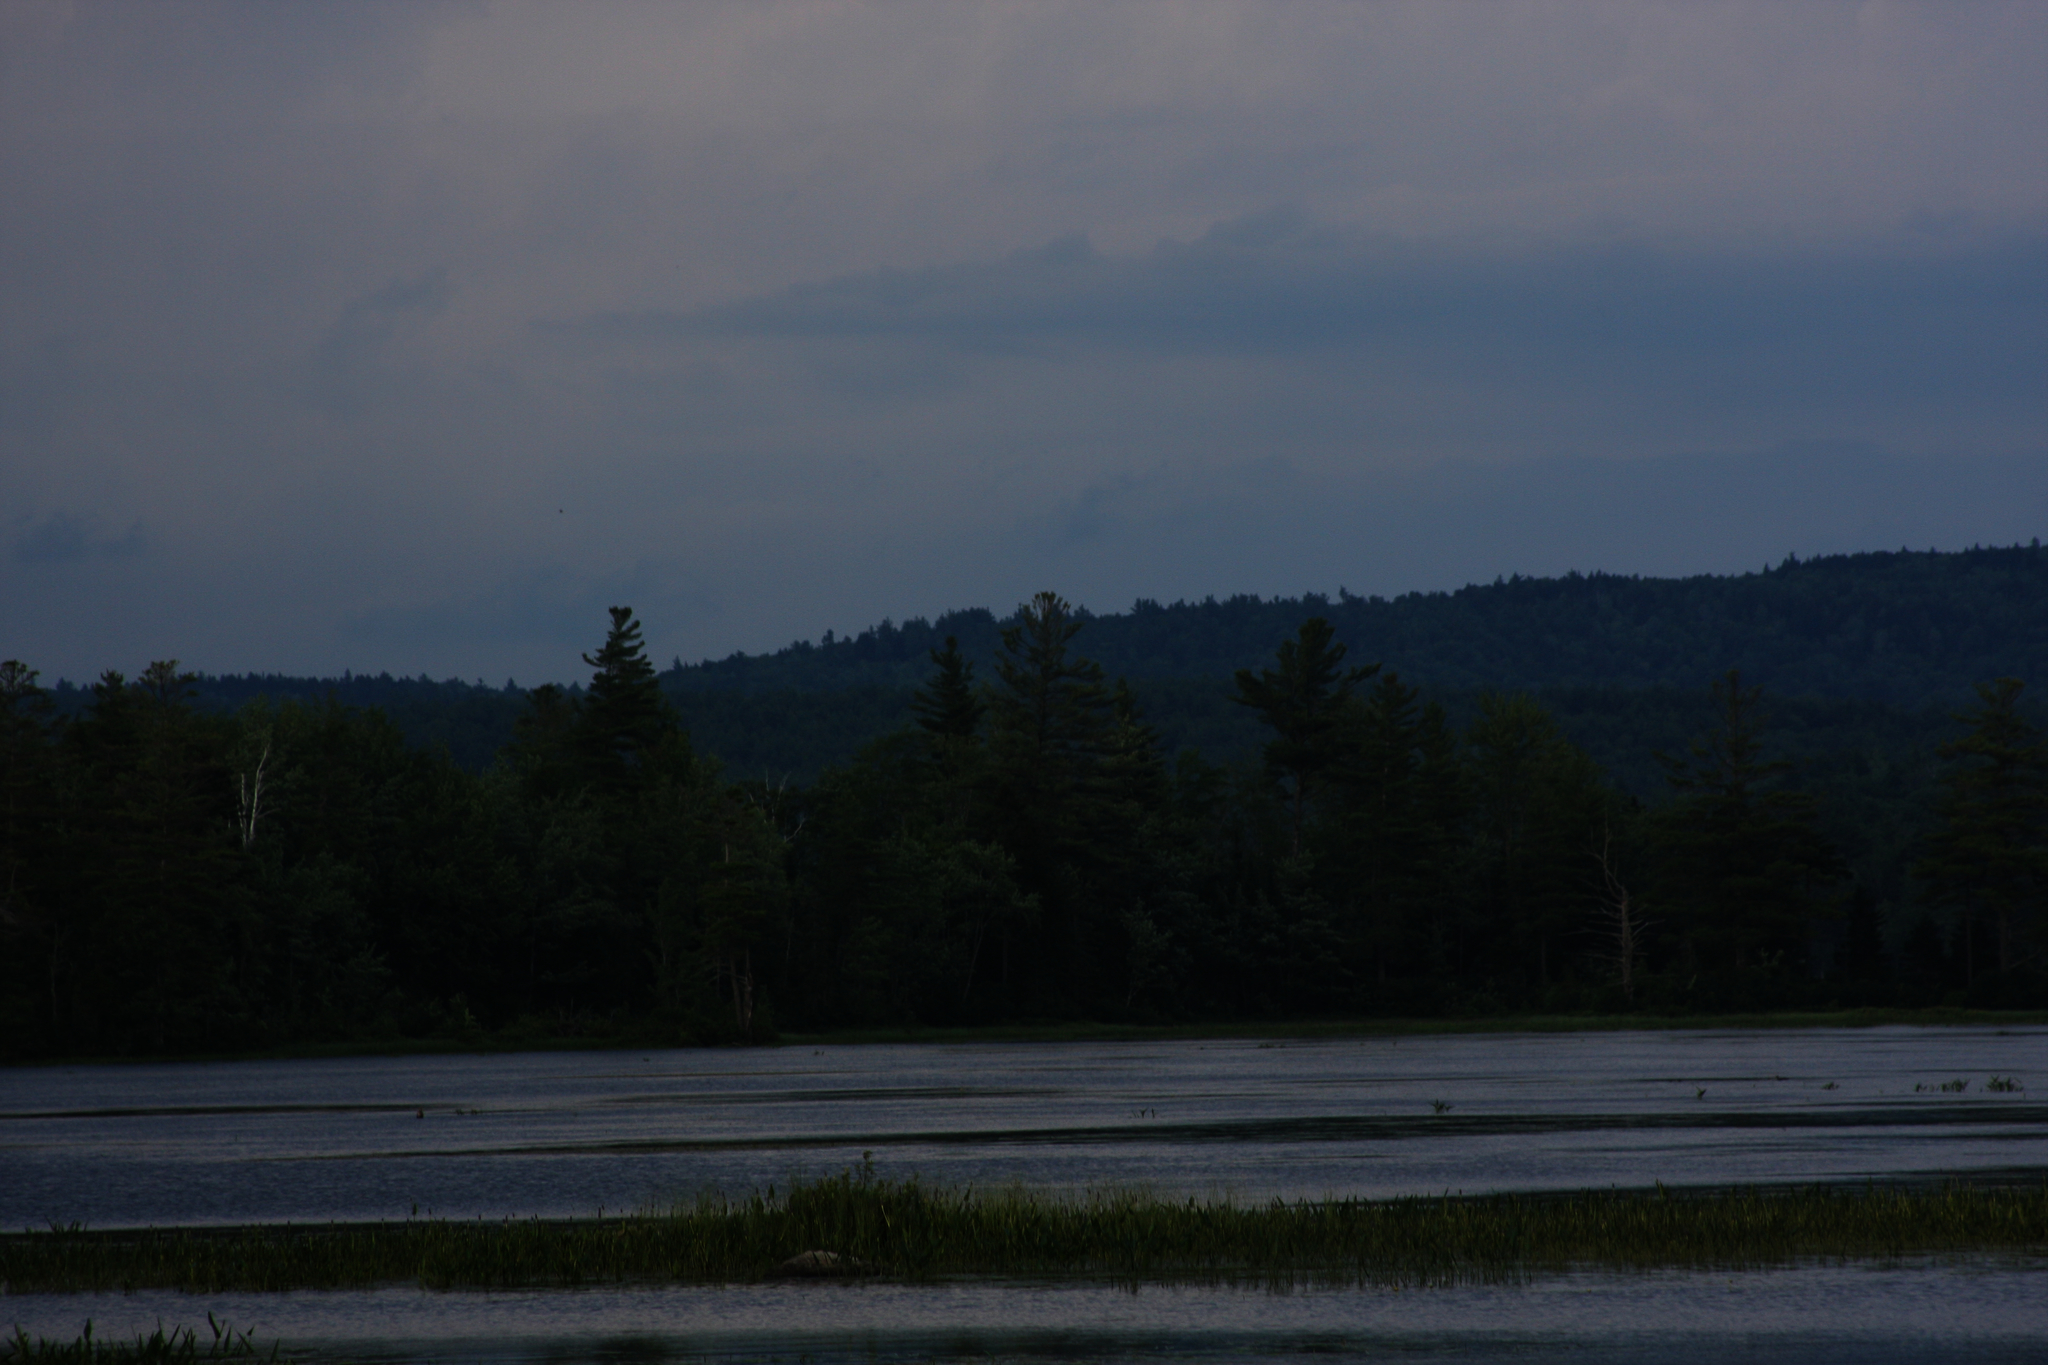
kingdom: Plantae
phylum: Tracheophyta
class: Pinopsida
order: Pinales
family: Pinaceae
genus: Pinus
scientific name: Pinus strobus
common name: Weymouth pine
